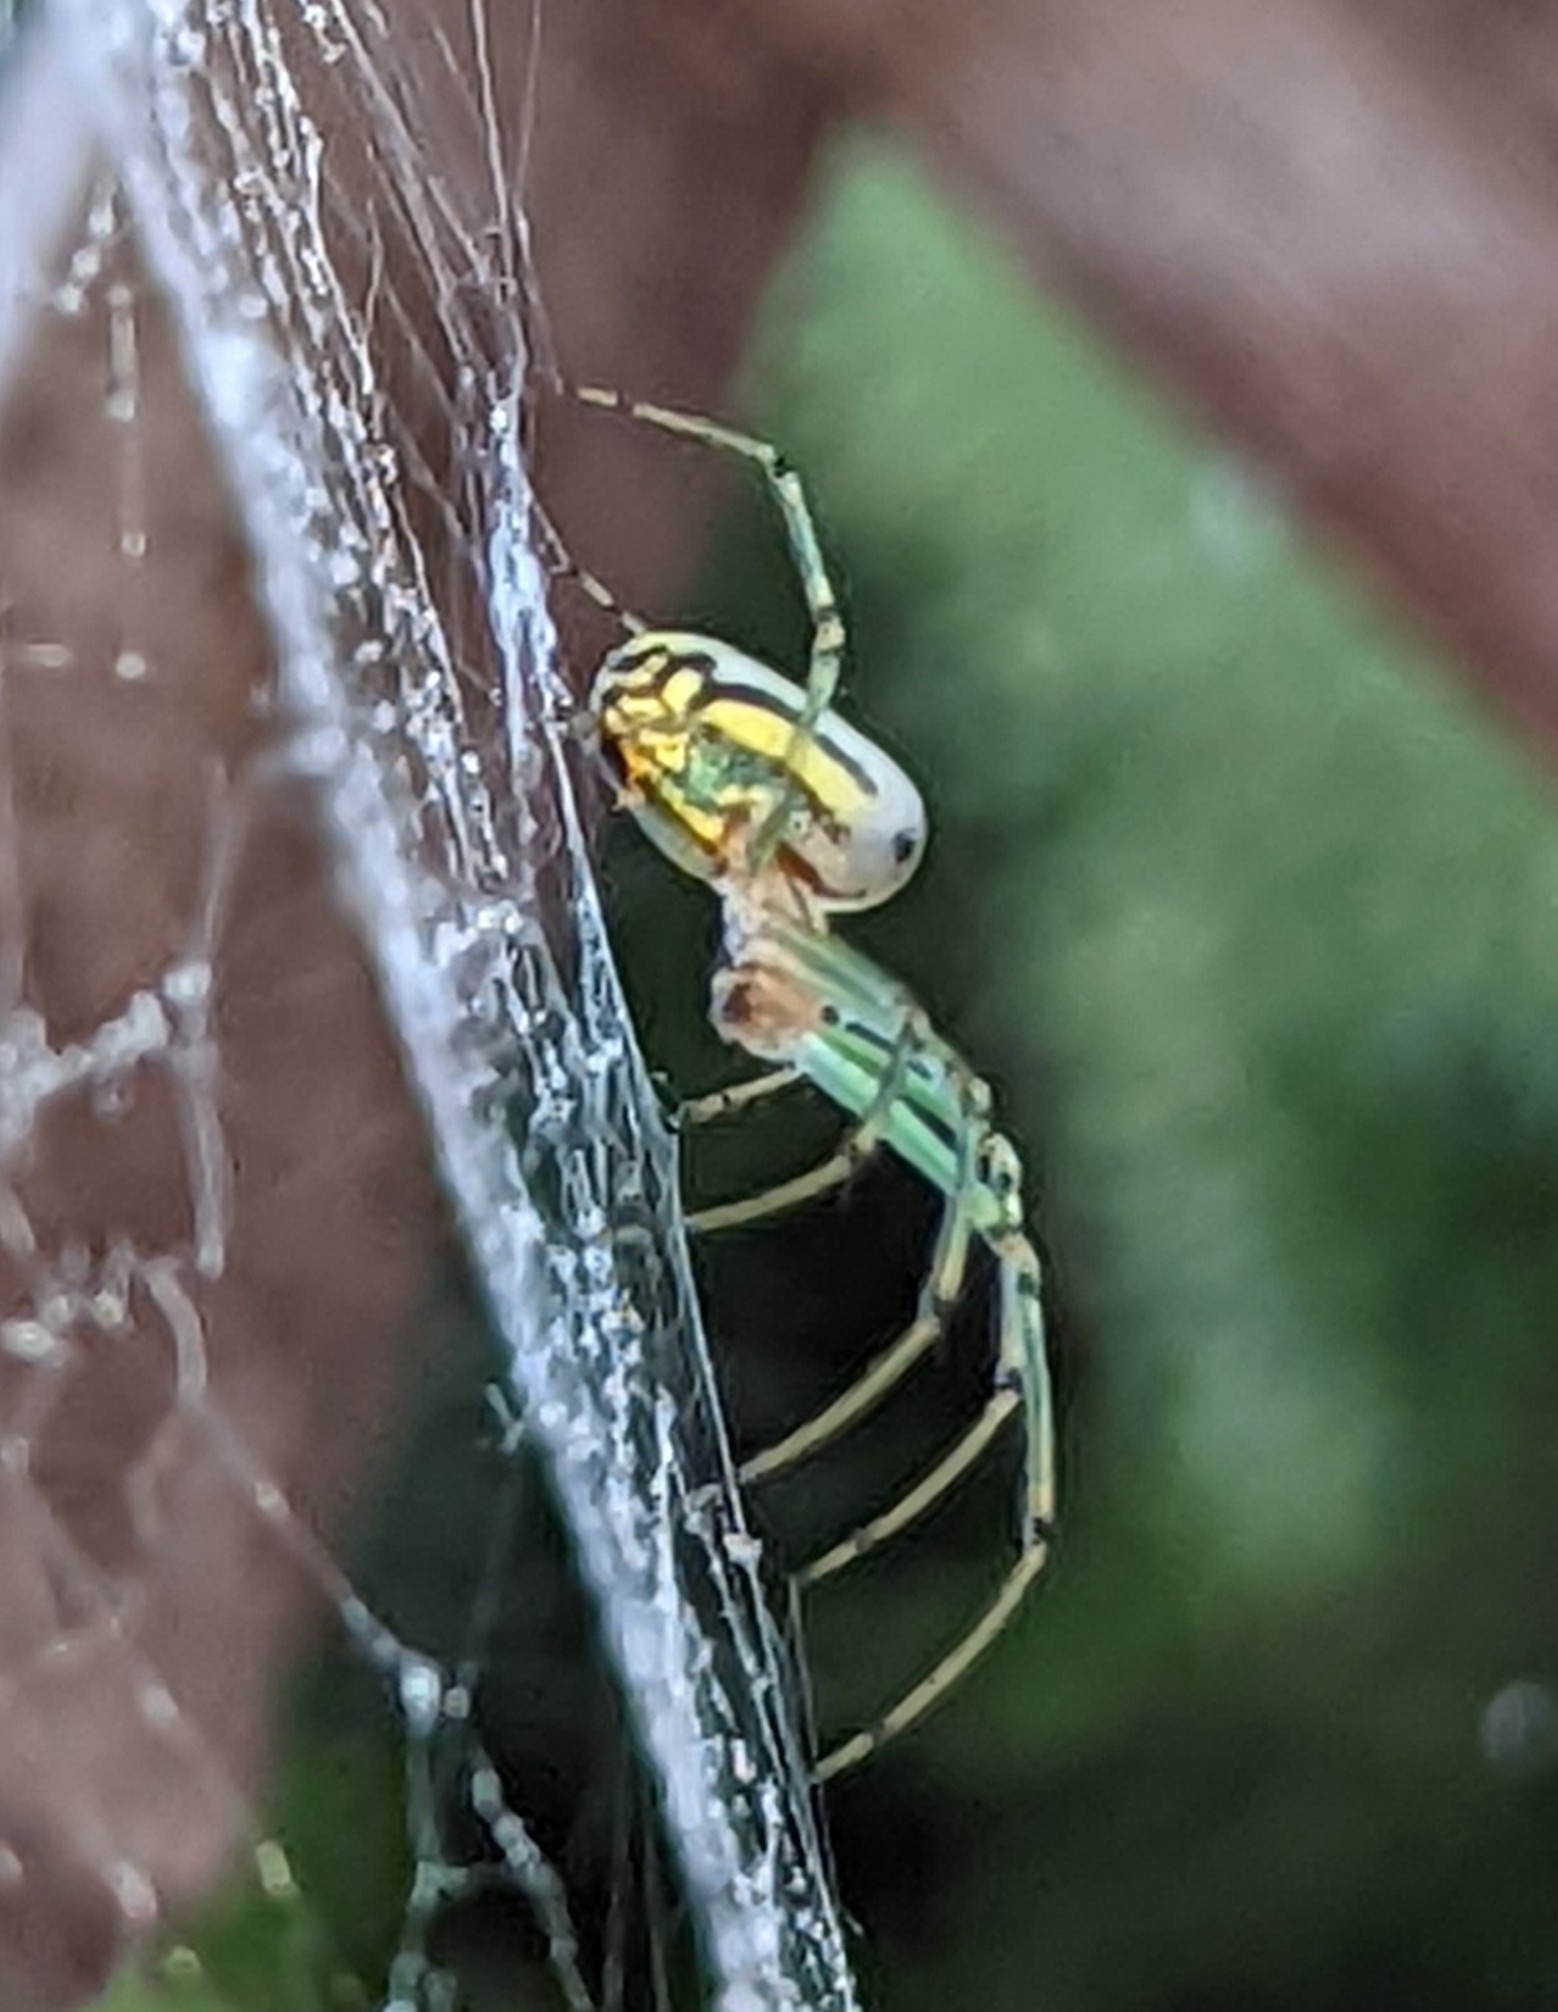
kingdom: Animalia
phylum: Arthropoda
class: Arachnida
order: Araneae
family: Tetragnathidae
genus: Leucauge
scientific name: Leucauge venusta
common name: Longjawed orb weavers
